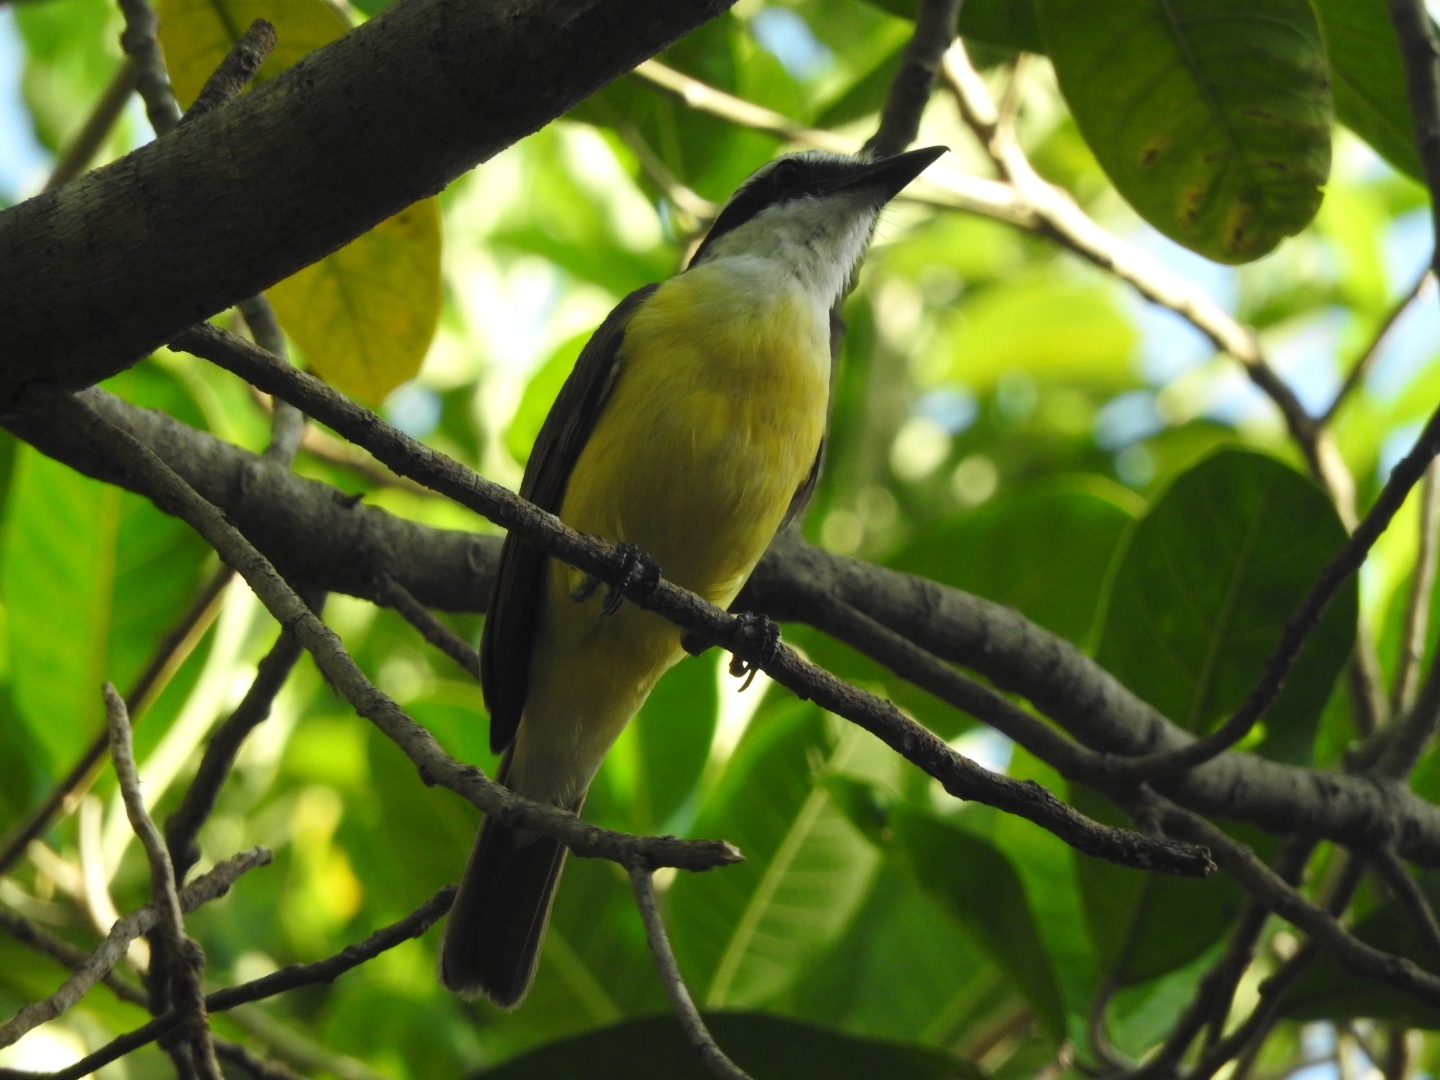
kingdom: Animalia
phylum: Chordata
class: Aves
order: Passeriformes
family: Tyrannidae
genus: Pitangus
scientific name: Pitangus sulphuratus
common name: Great kiskadee
